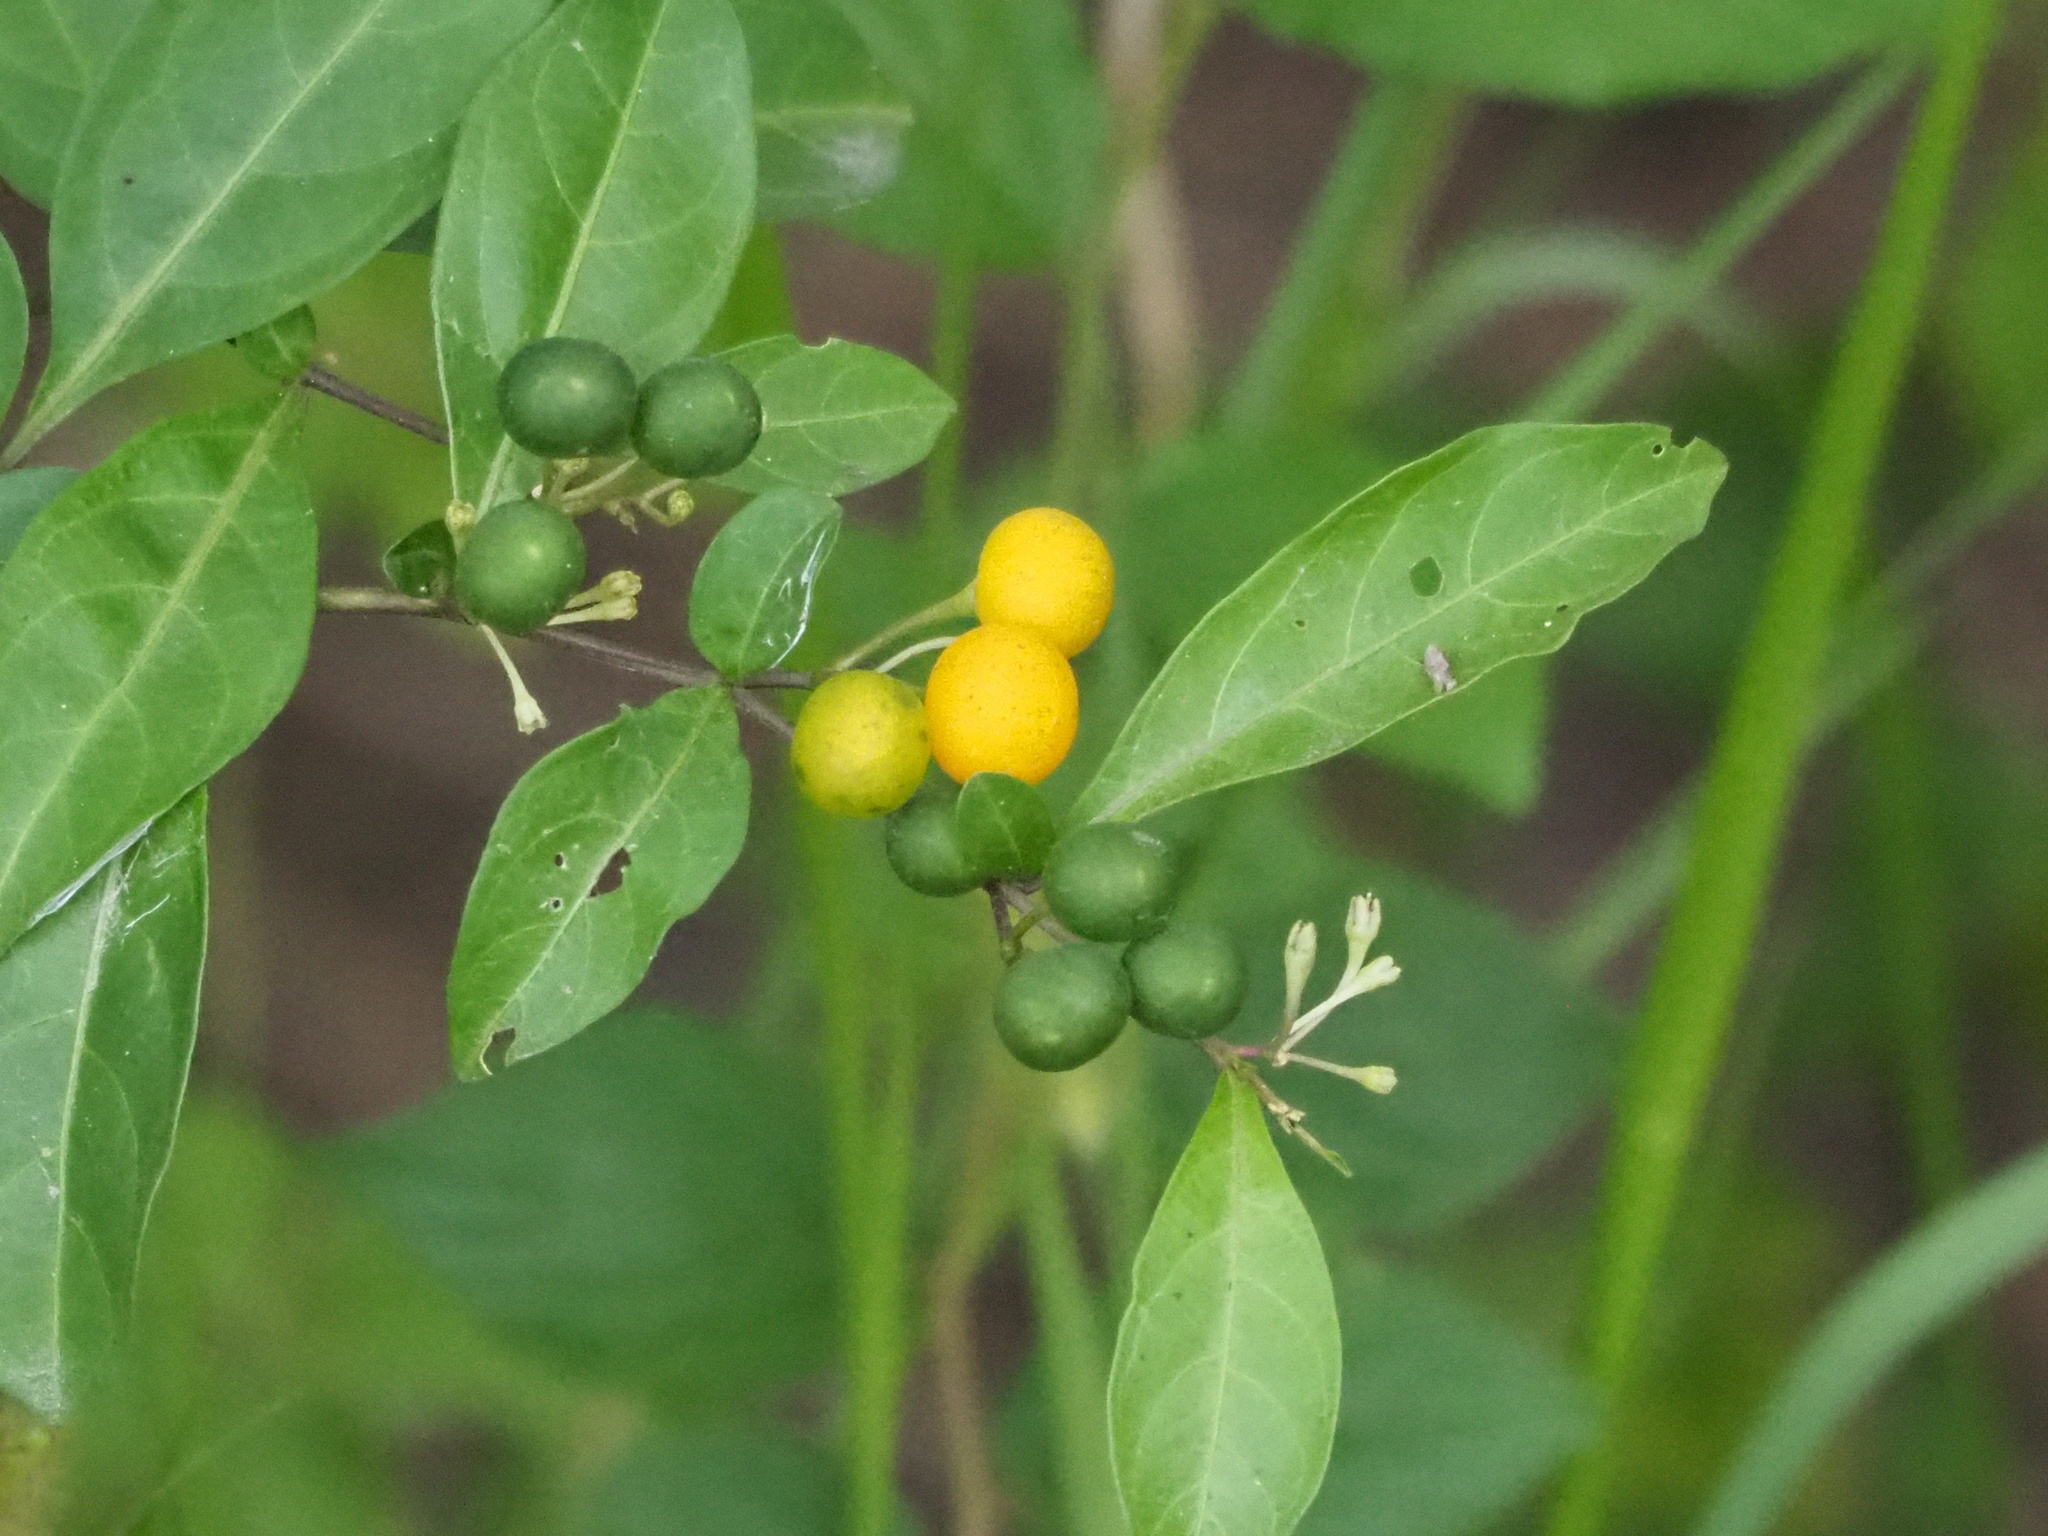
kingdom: Plantae
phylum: Tracheophyta
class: Magnoliopsida
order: Solanales
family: Solanaceae
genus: Solanum
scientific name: Solanum diphyllum
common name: Twoleaf nightshade
